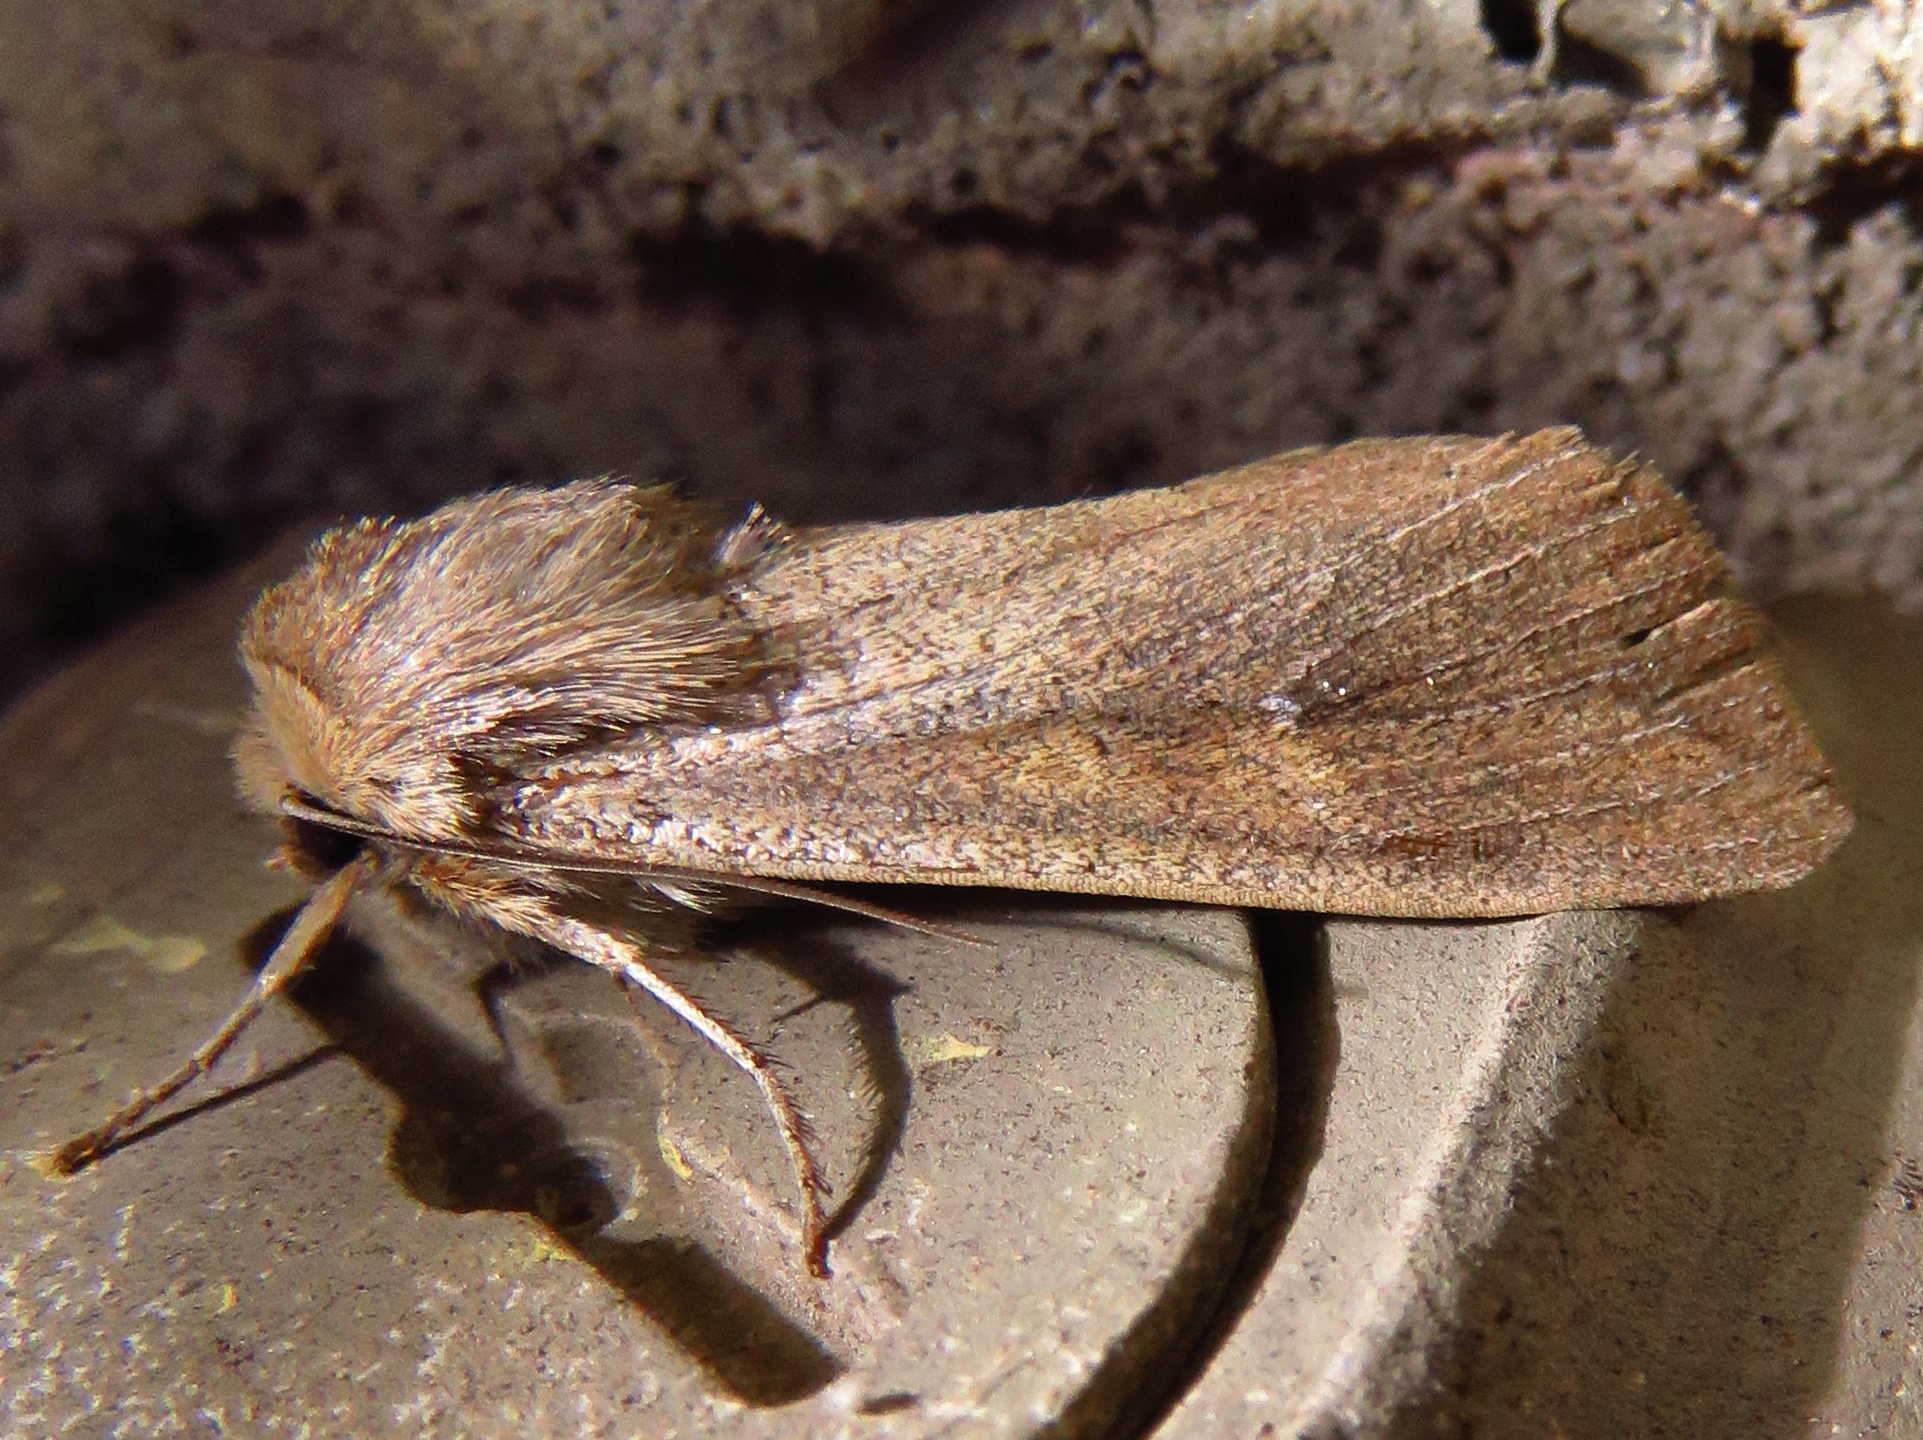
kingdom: Animalia
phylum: Arthropoda
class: Insecta
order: Lepidoptera
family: Noctuidae
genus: Mythimna
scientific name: Mythimna unipuncta
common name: White-speck
